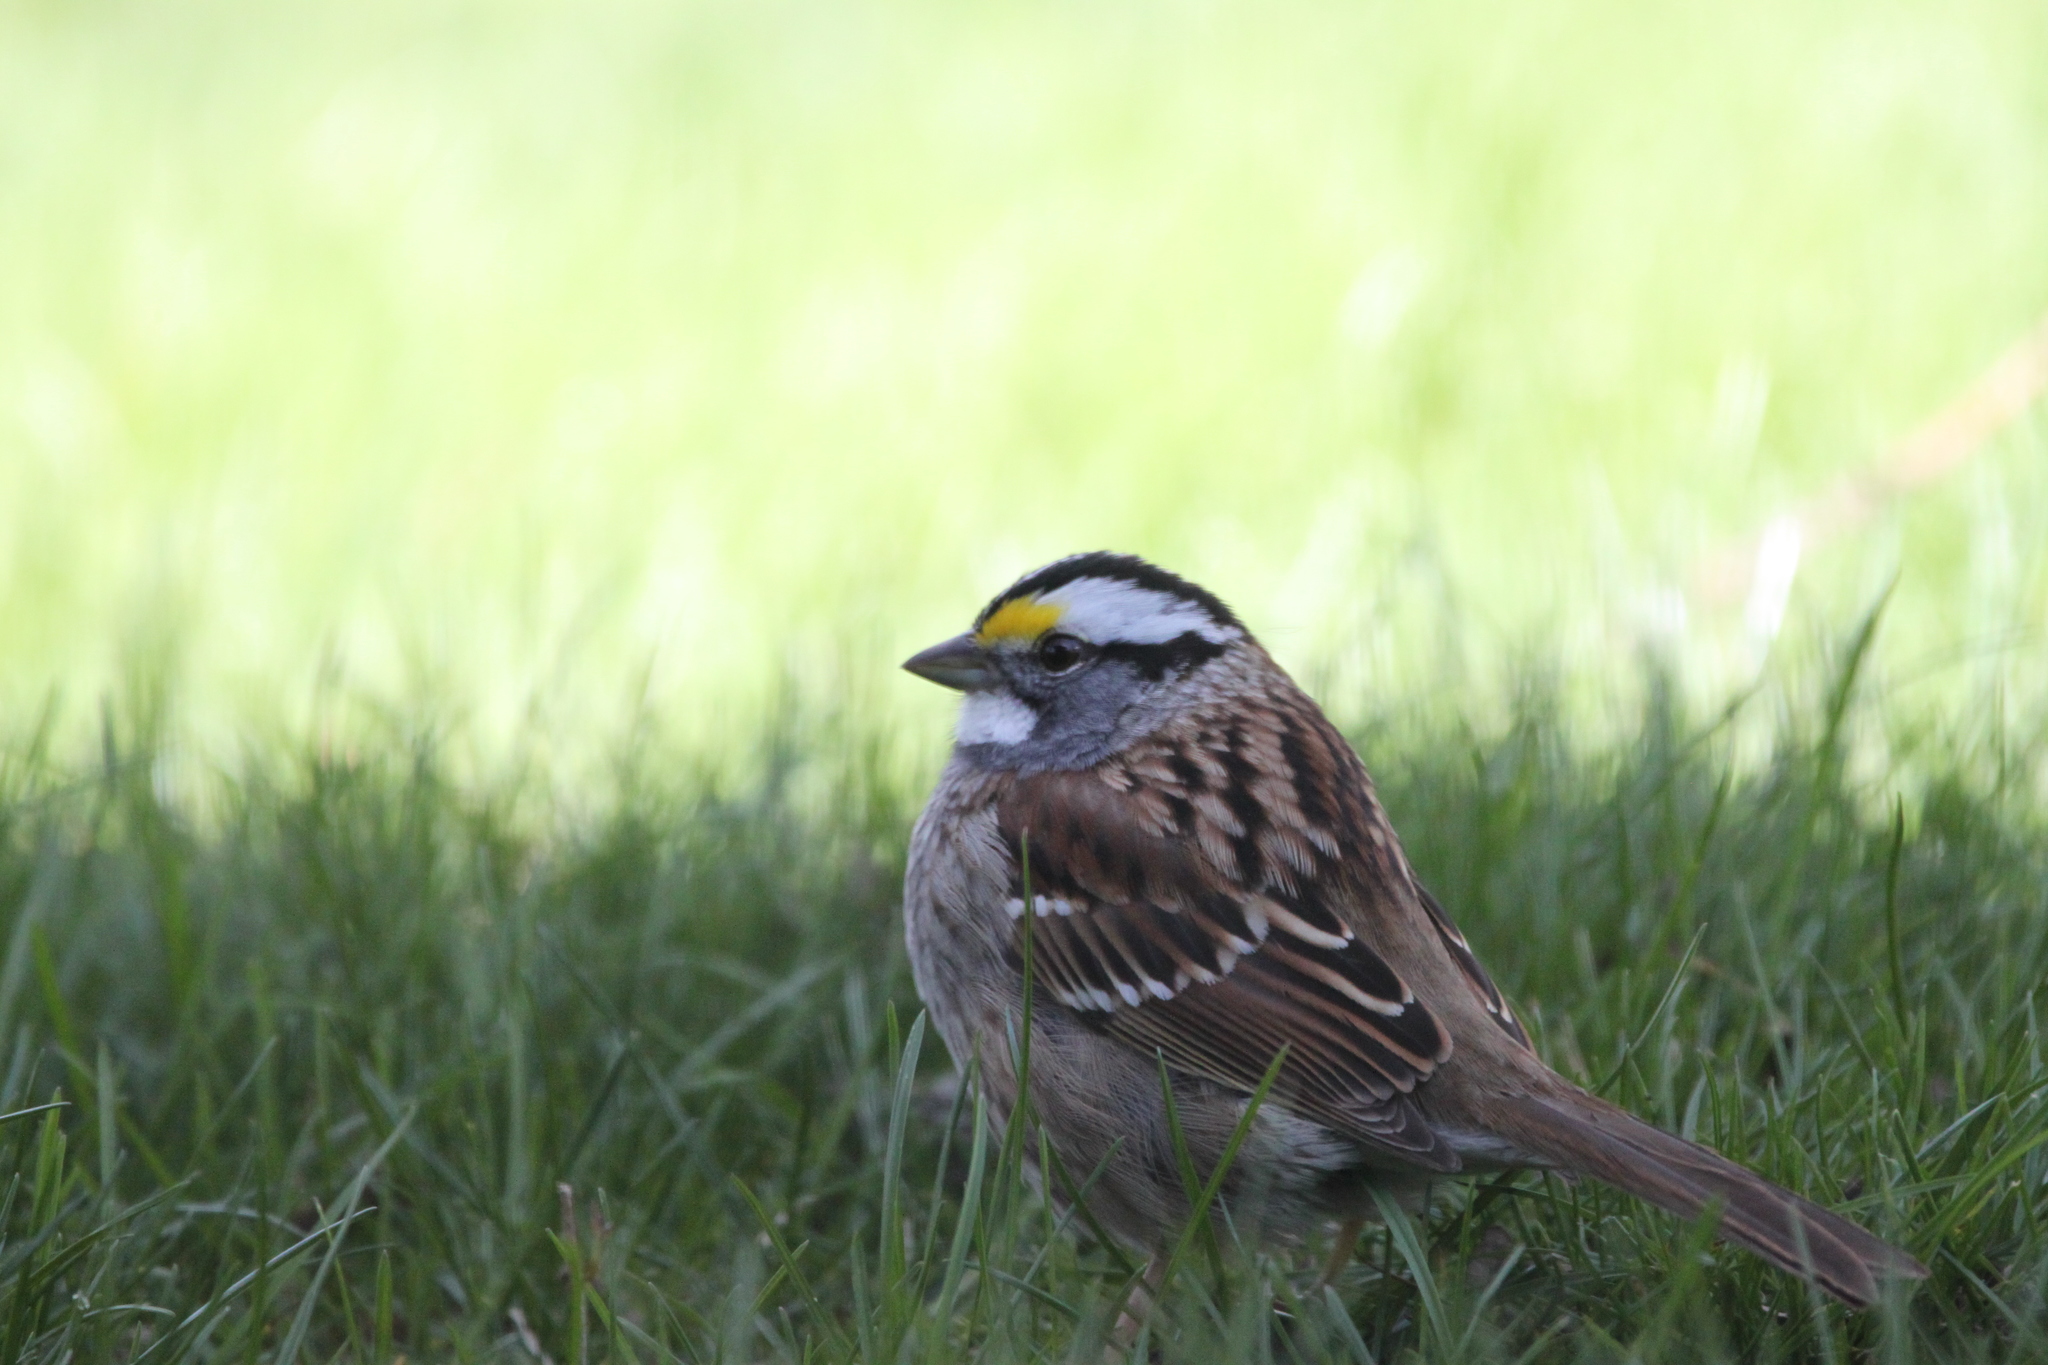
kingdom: Animalia
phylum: Chordata
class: Aves
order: Passeriformes
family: Passerellidae
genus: Zonotrichia
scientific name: Zonotrichia albicollis
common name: White-throated sparrow
